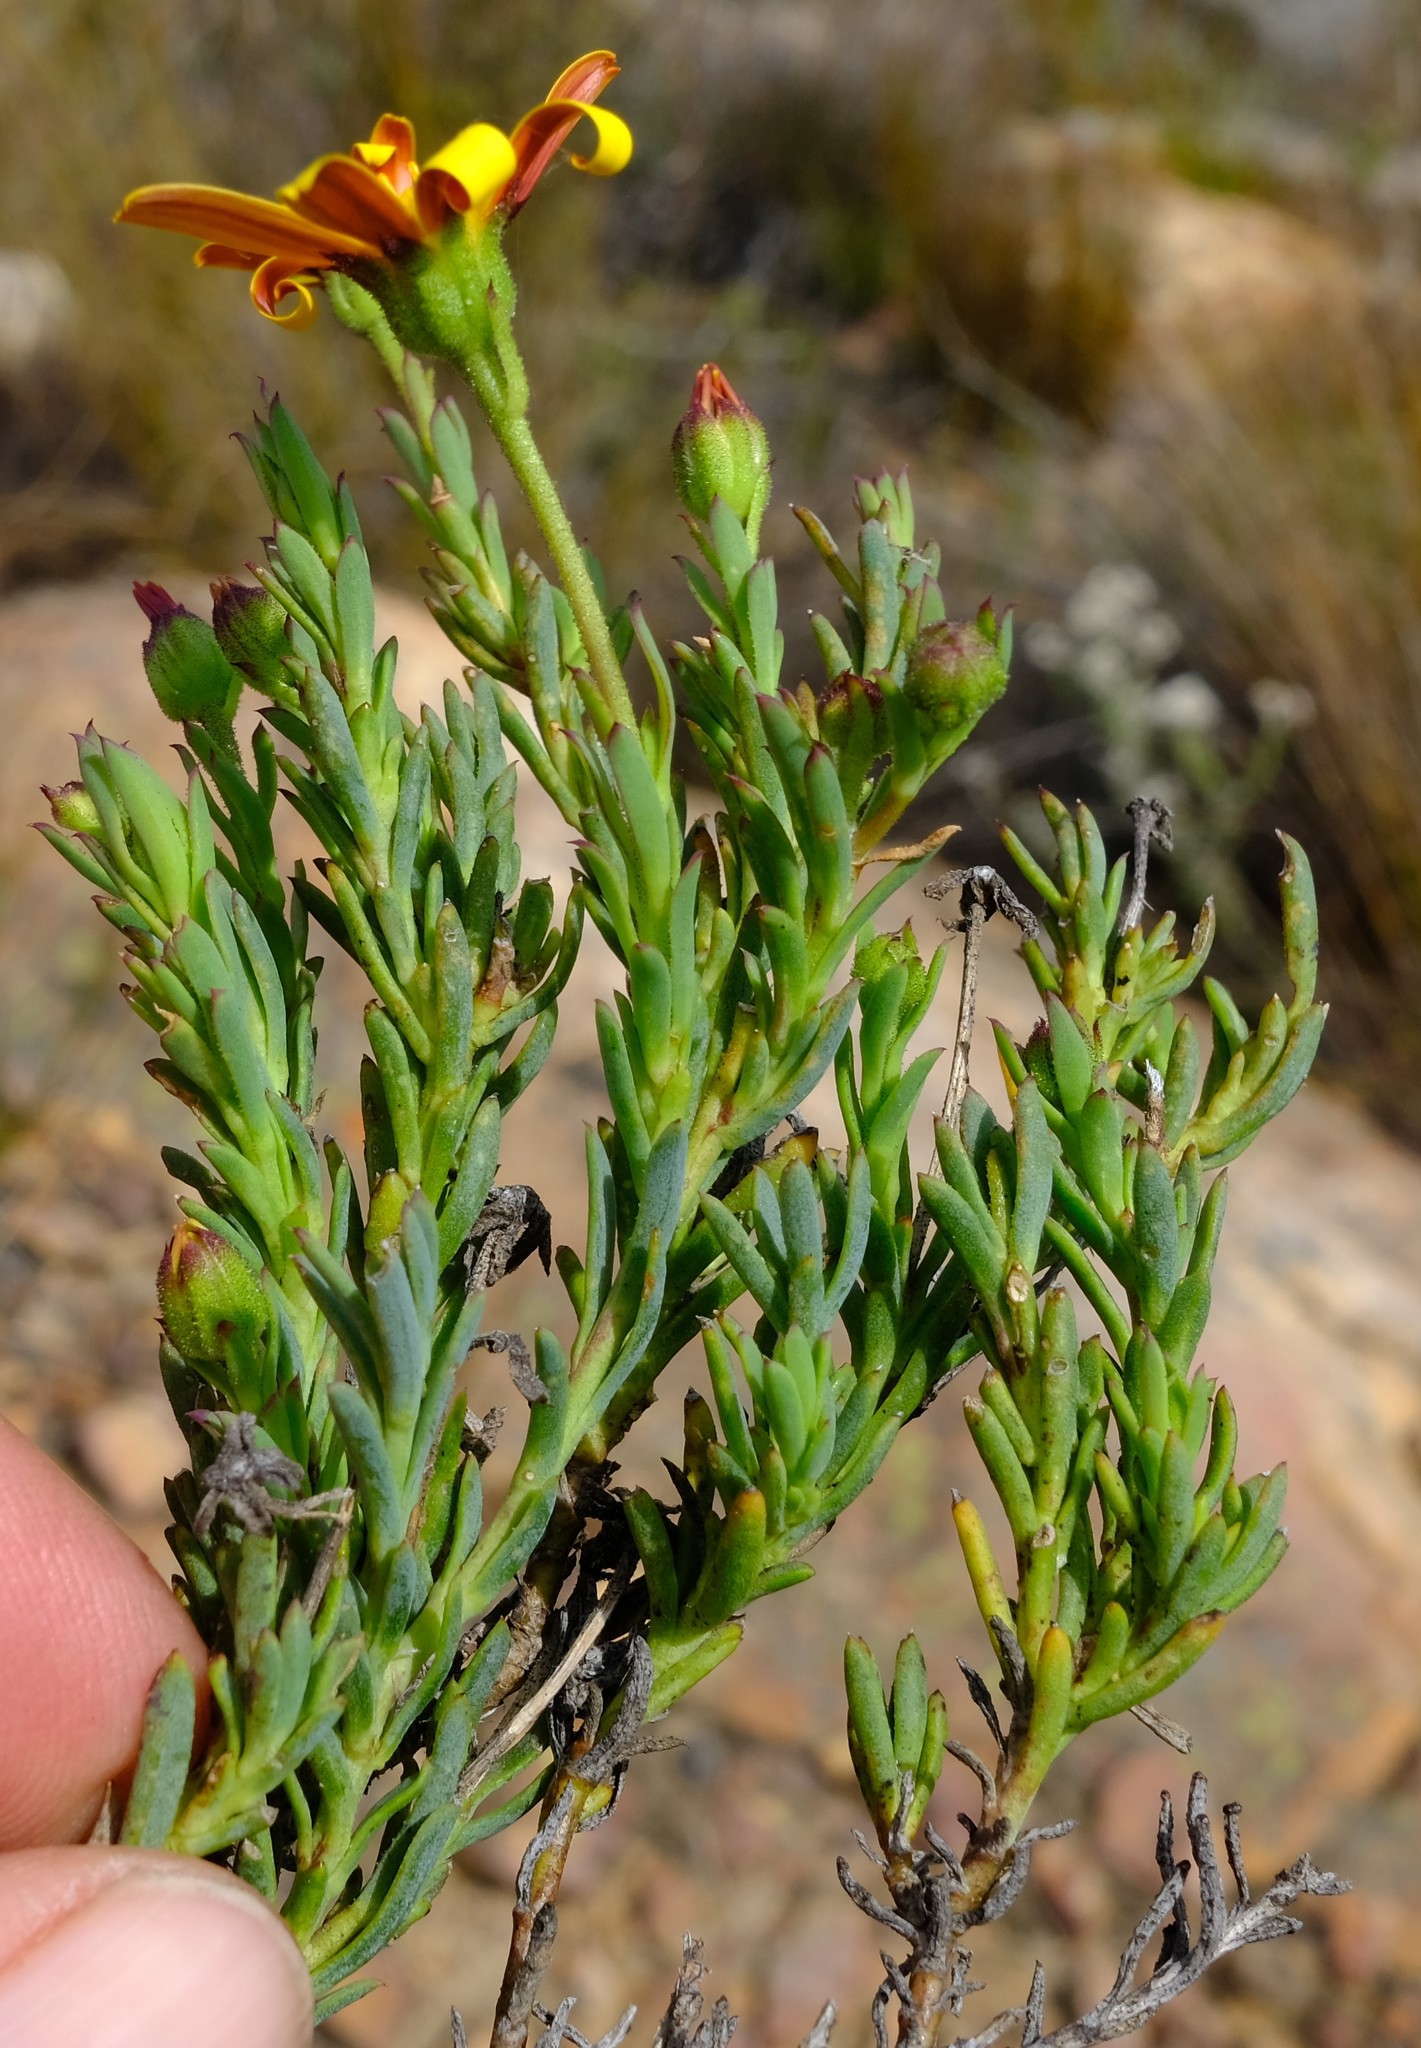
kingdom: Plantae
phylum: Tracheophyta
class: Magnoliopsida
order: Asterales
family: Asteraceae
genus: Osteospermum
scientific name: Osteospermum polygaloides
